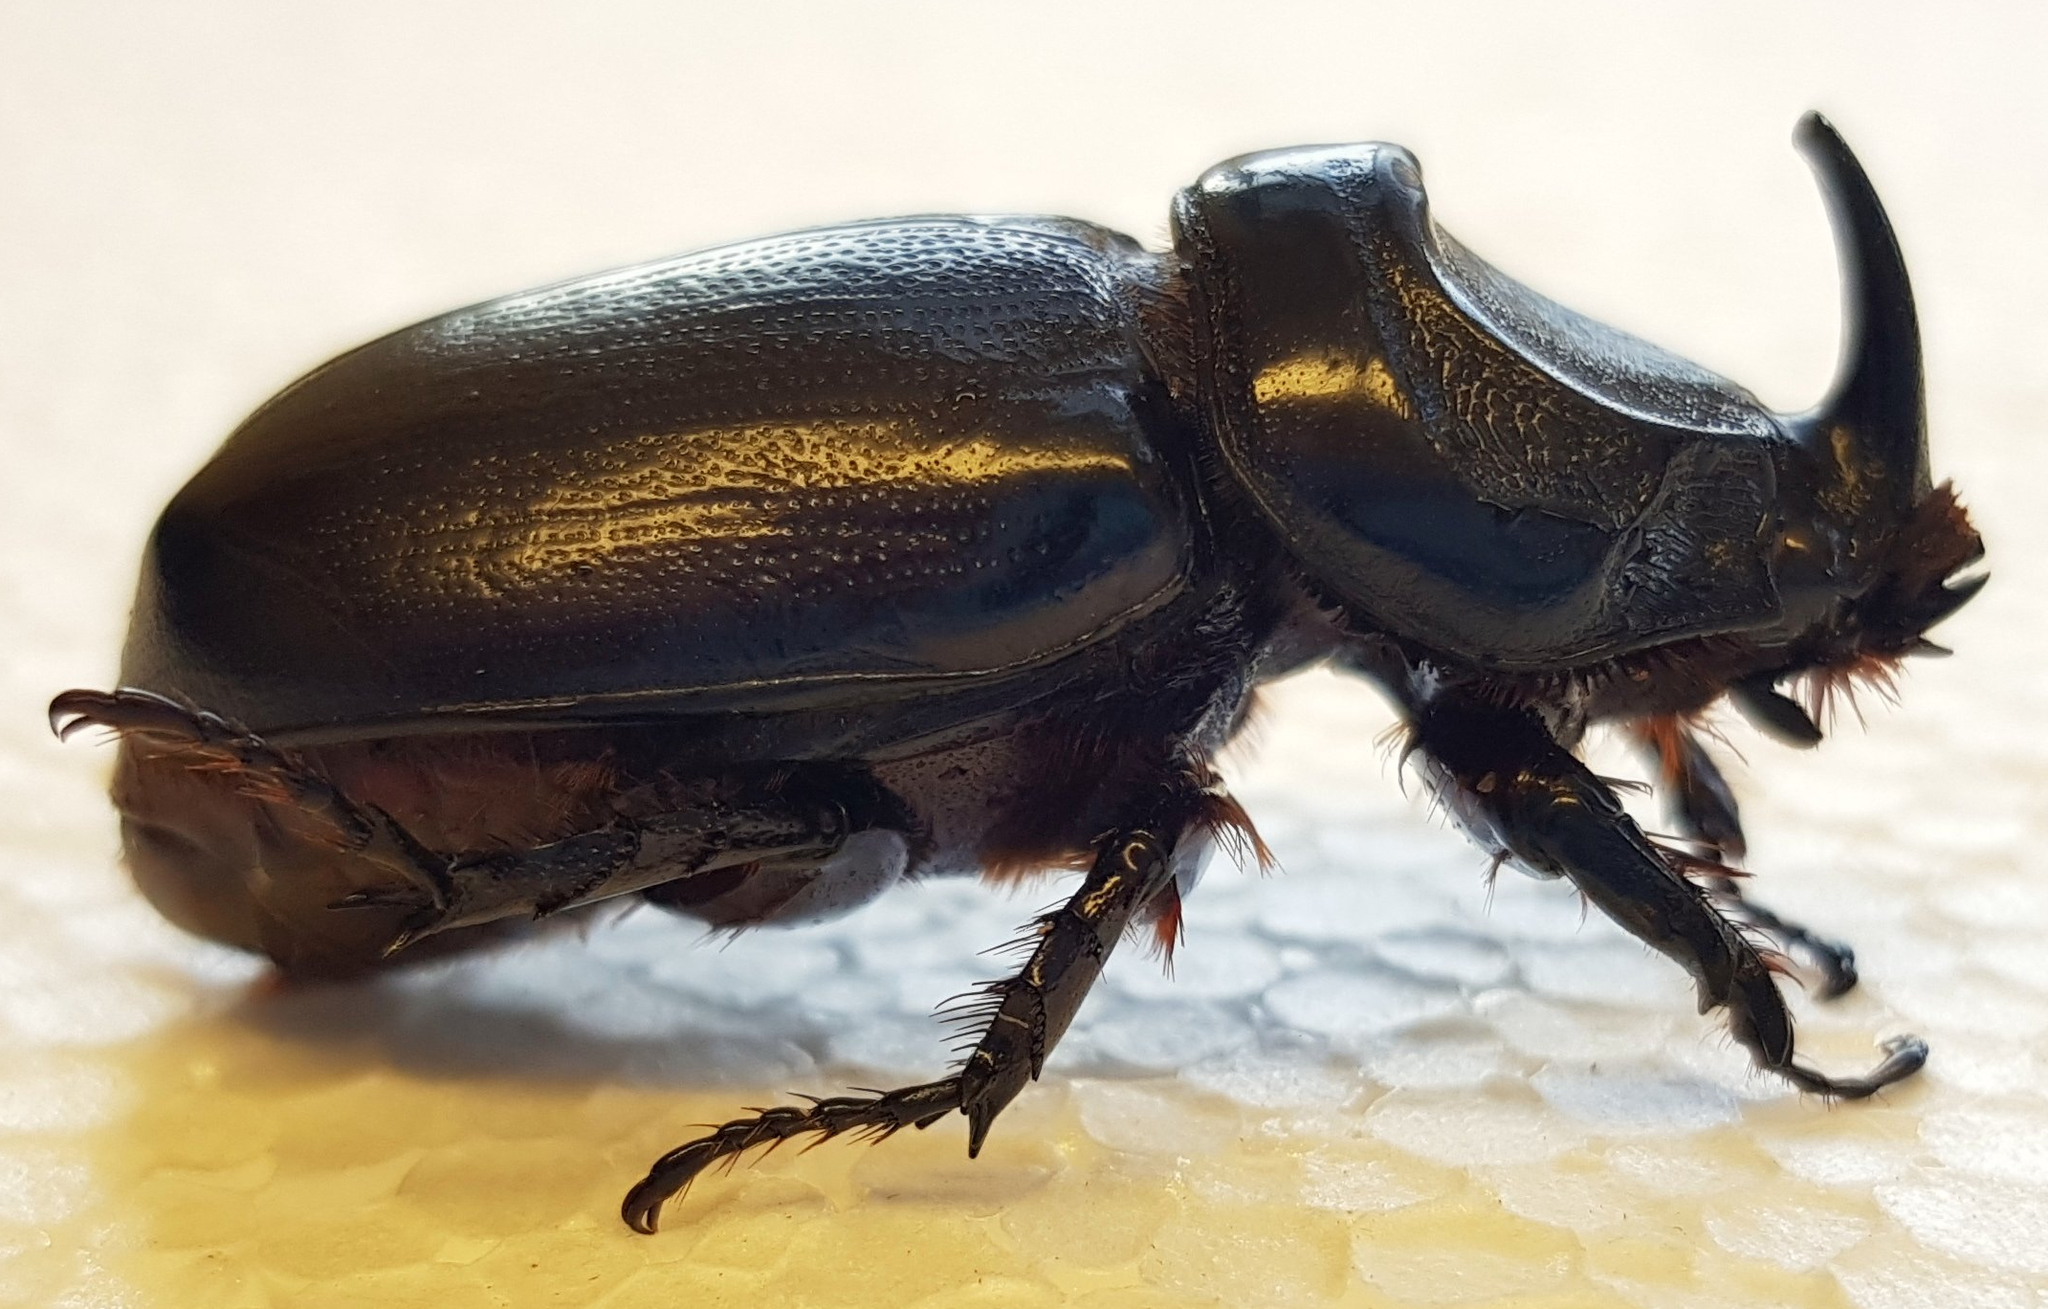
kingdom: Animalia
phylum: Arthropoda
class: Insecta
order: Coleoptera
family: Scarabaeidae
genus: Oryctes
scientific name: Oryctes rhinoceros
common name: Coconut rhinoceros beetle
